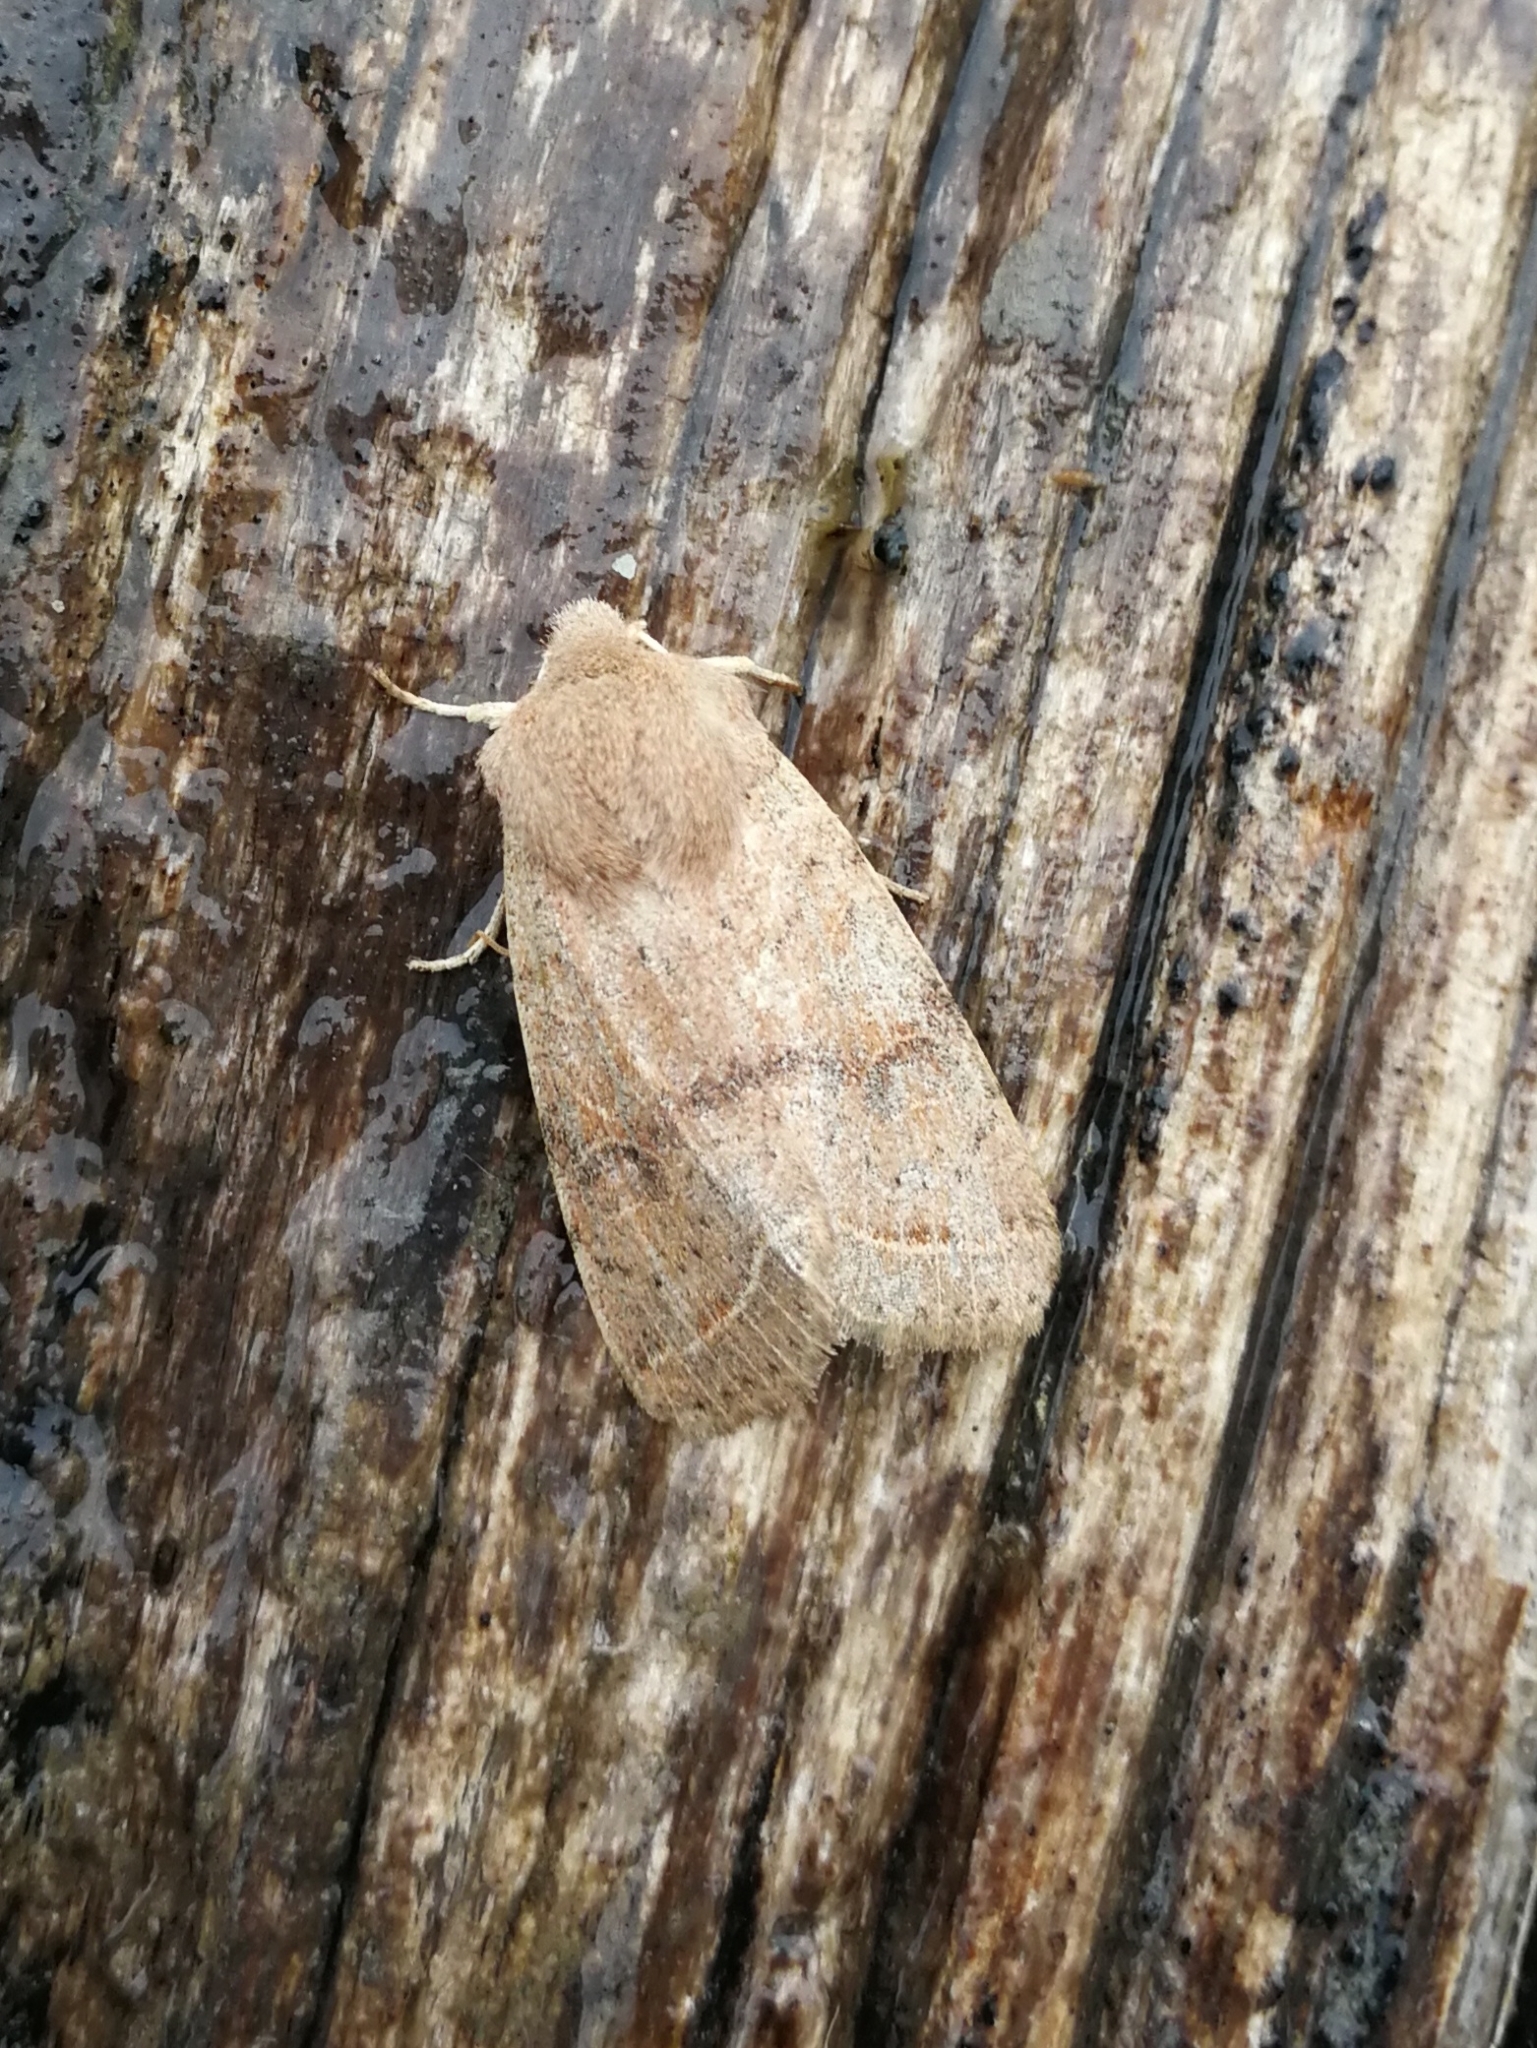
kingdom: Animalia
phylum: Arthropoda
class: Insecta
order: Lepidoptera
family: Noctuidae
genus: Orthosia
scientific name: Orthosia cerasi
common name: Common quaker
